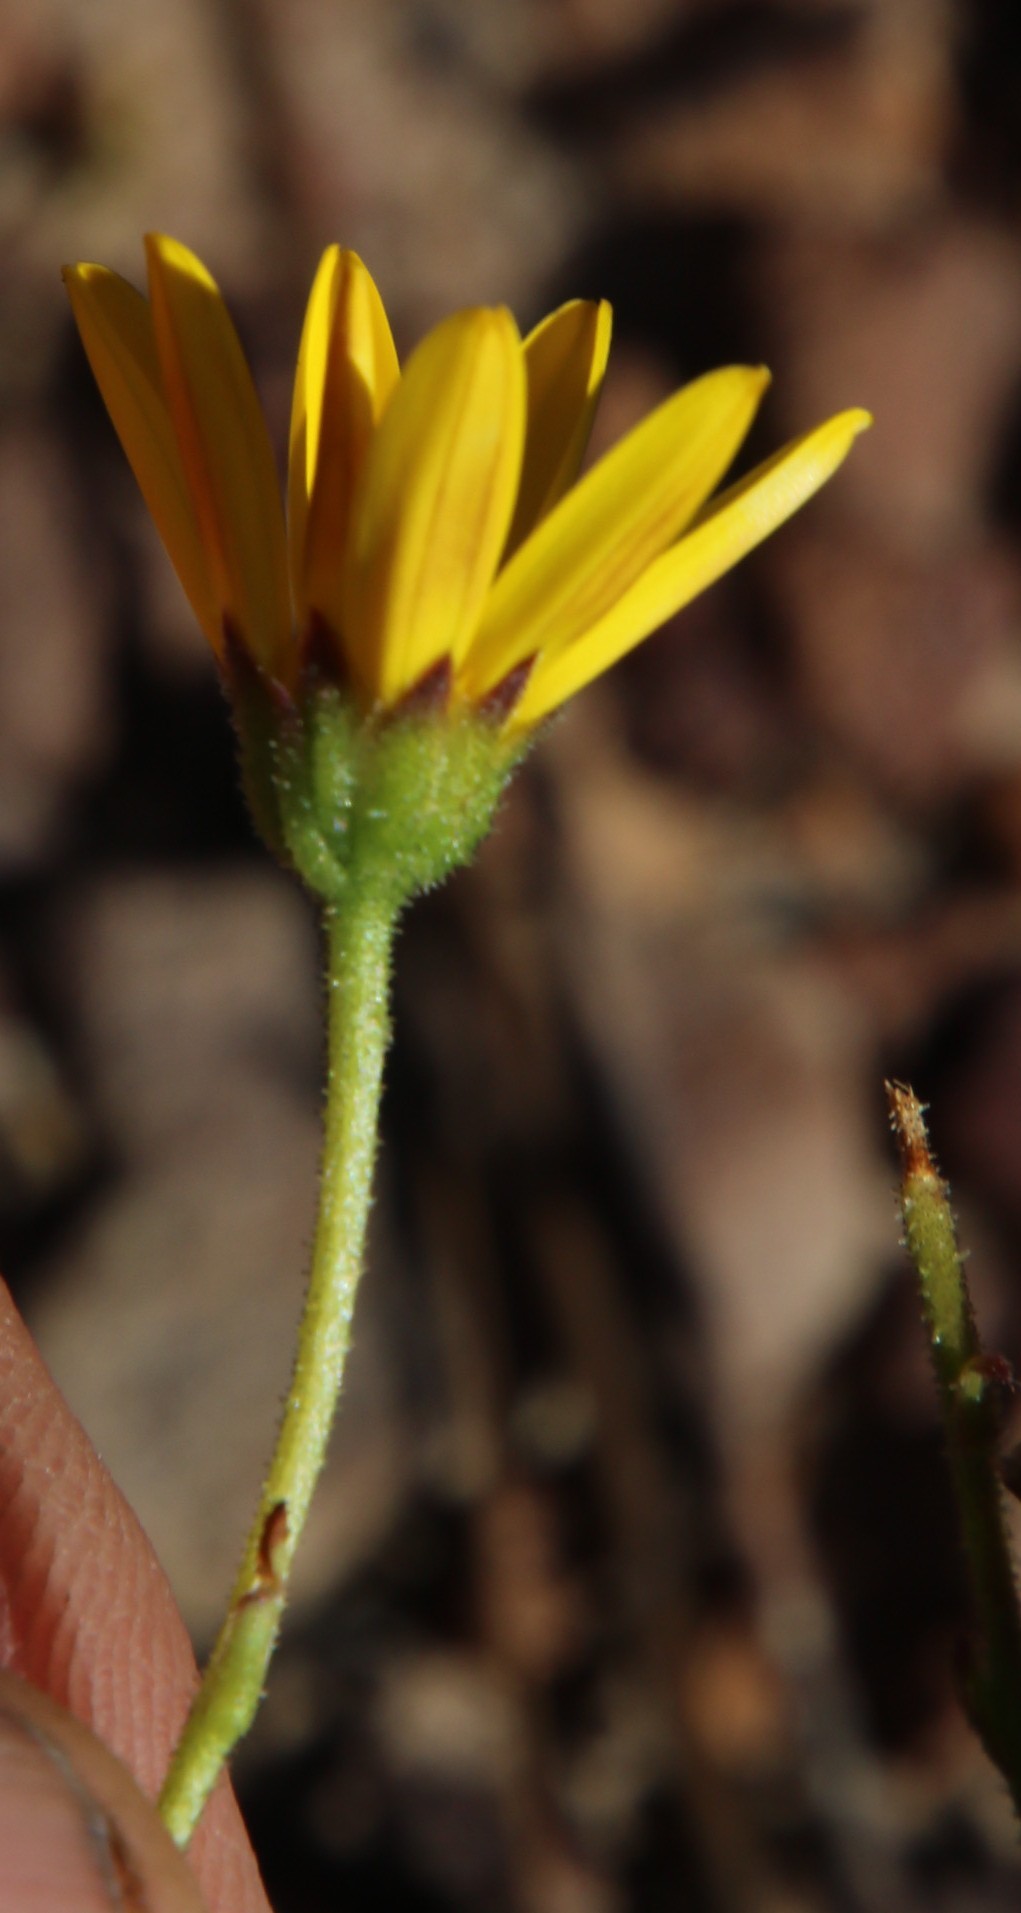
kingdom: Plantae
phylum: Tracheophyta
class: Magnoliopsida
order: Asterales
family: Asteraceae
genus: Osteospermum
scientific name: Osteospermum polygaloides
